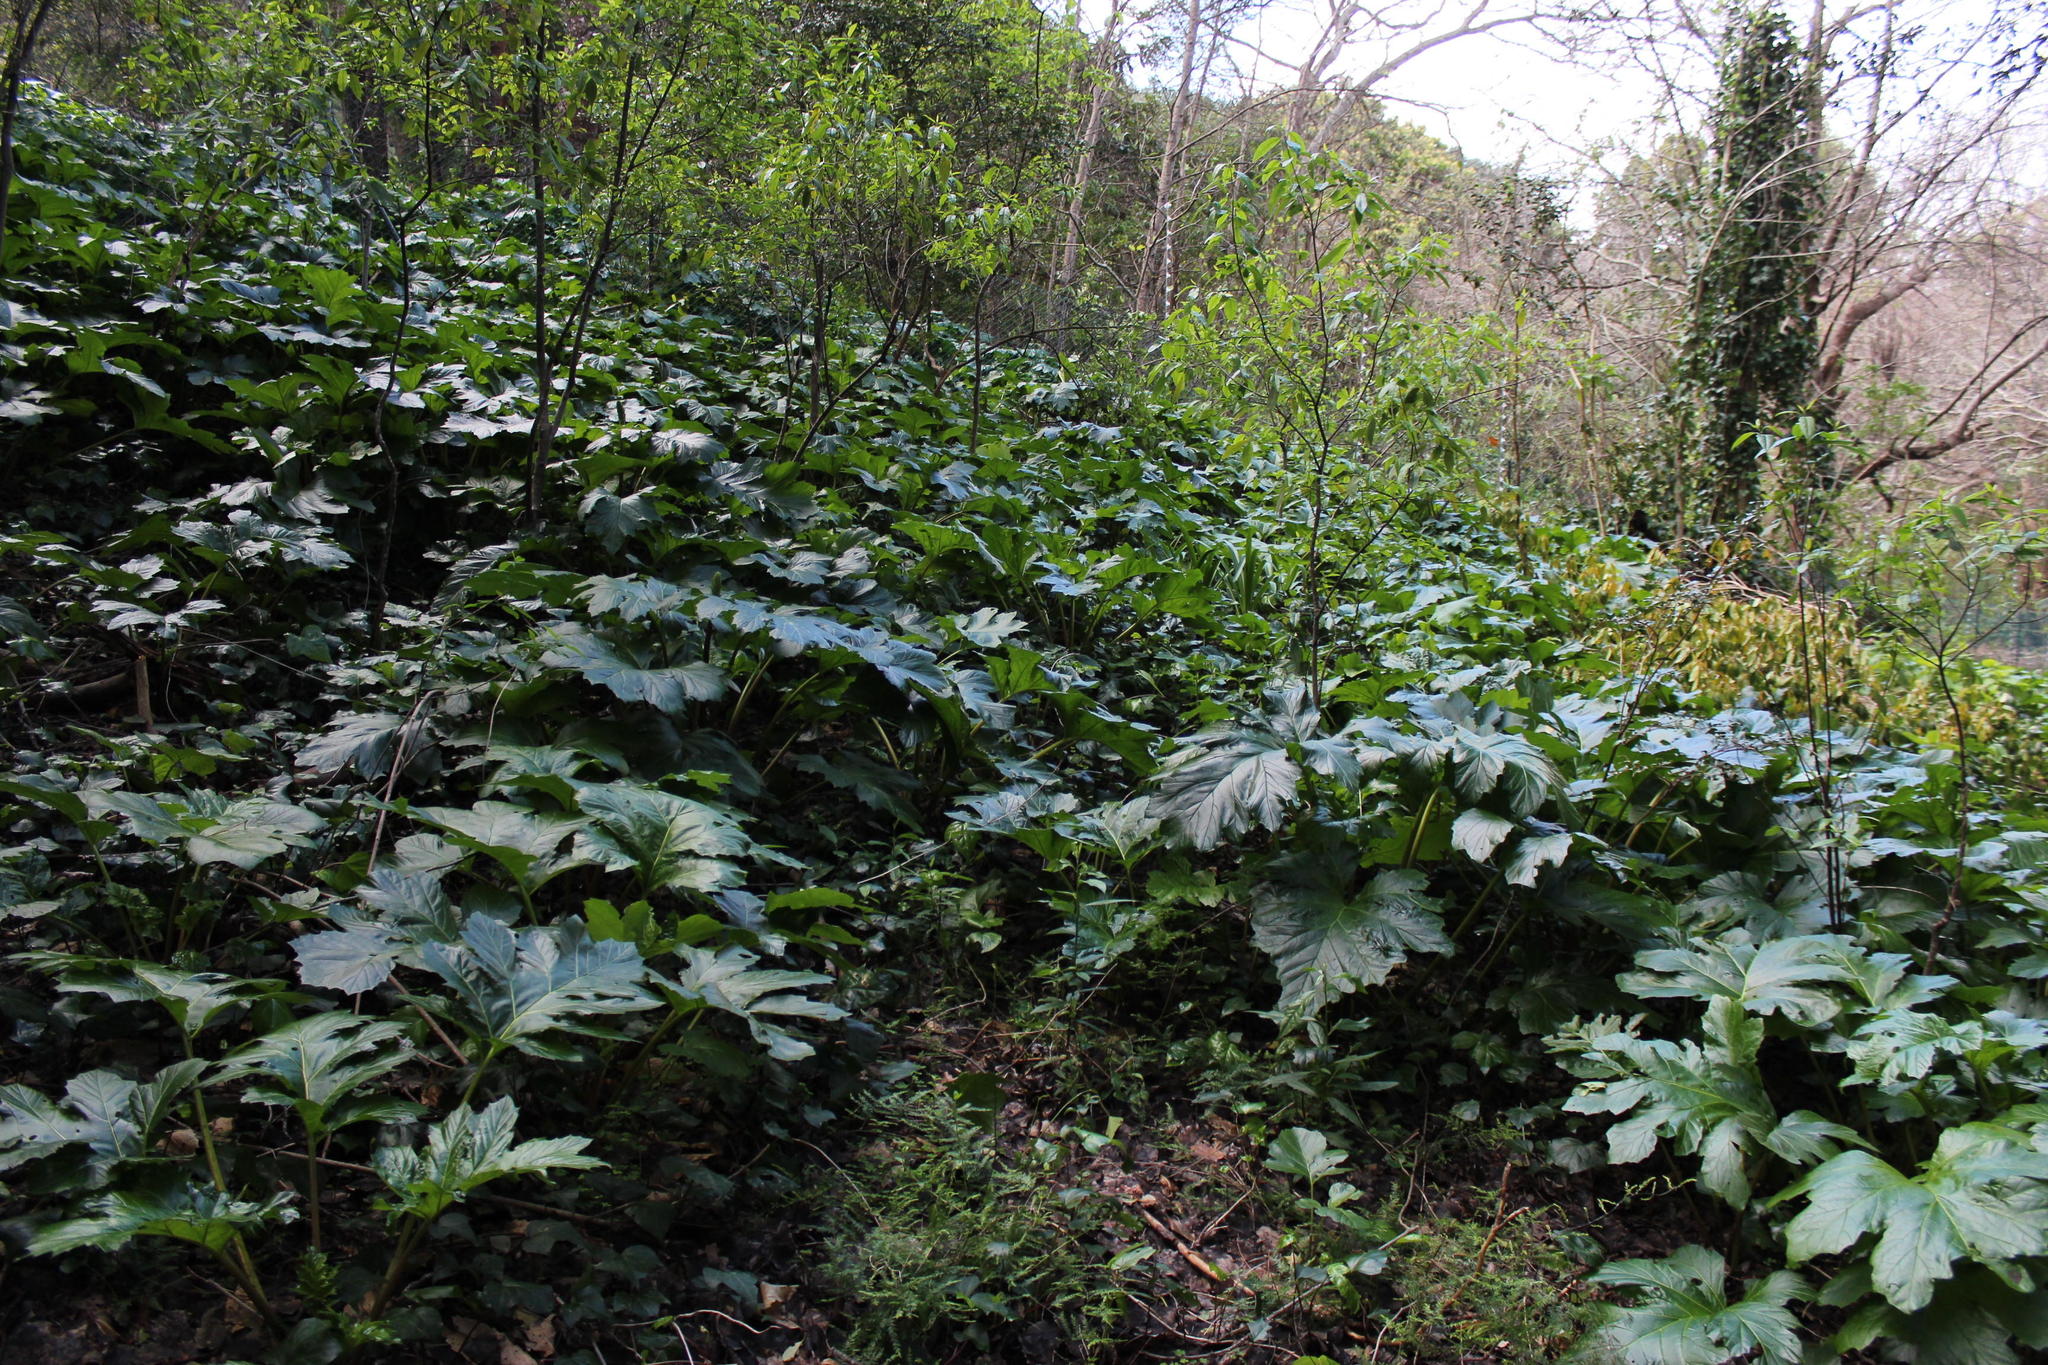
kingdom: Plantae
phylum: Tracheophyta
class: Magnoliopsida
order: Lamiales
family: Acanthaceae
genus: Acanthus
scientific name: Acanthus mollis
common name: Bear's-breech
